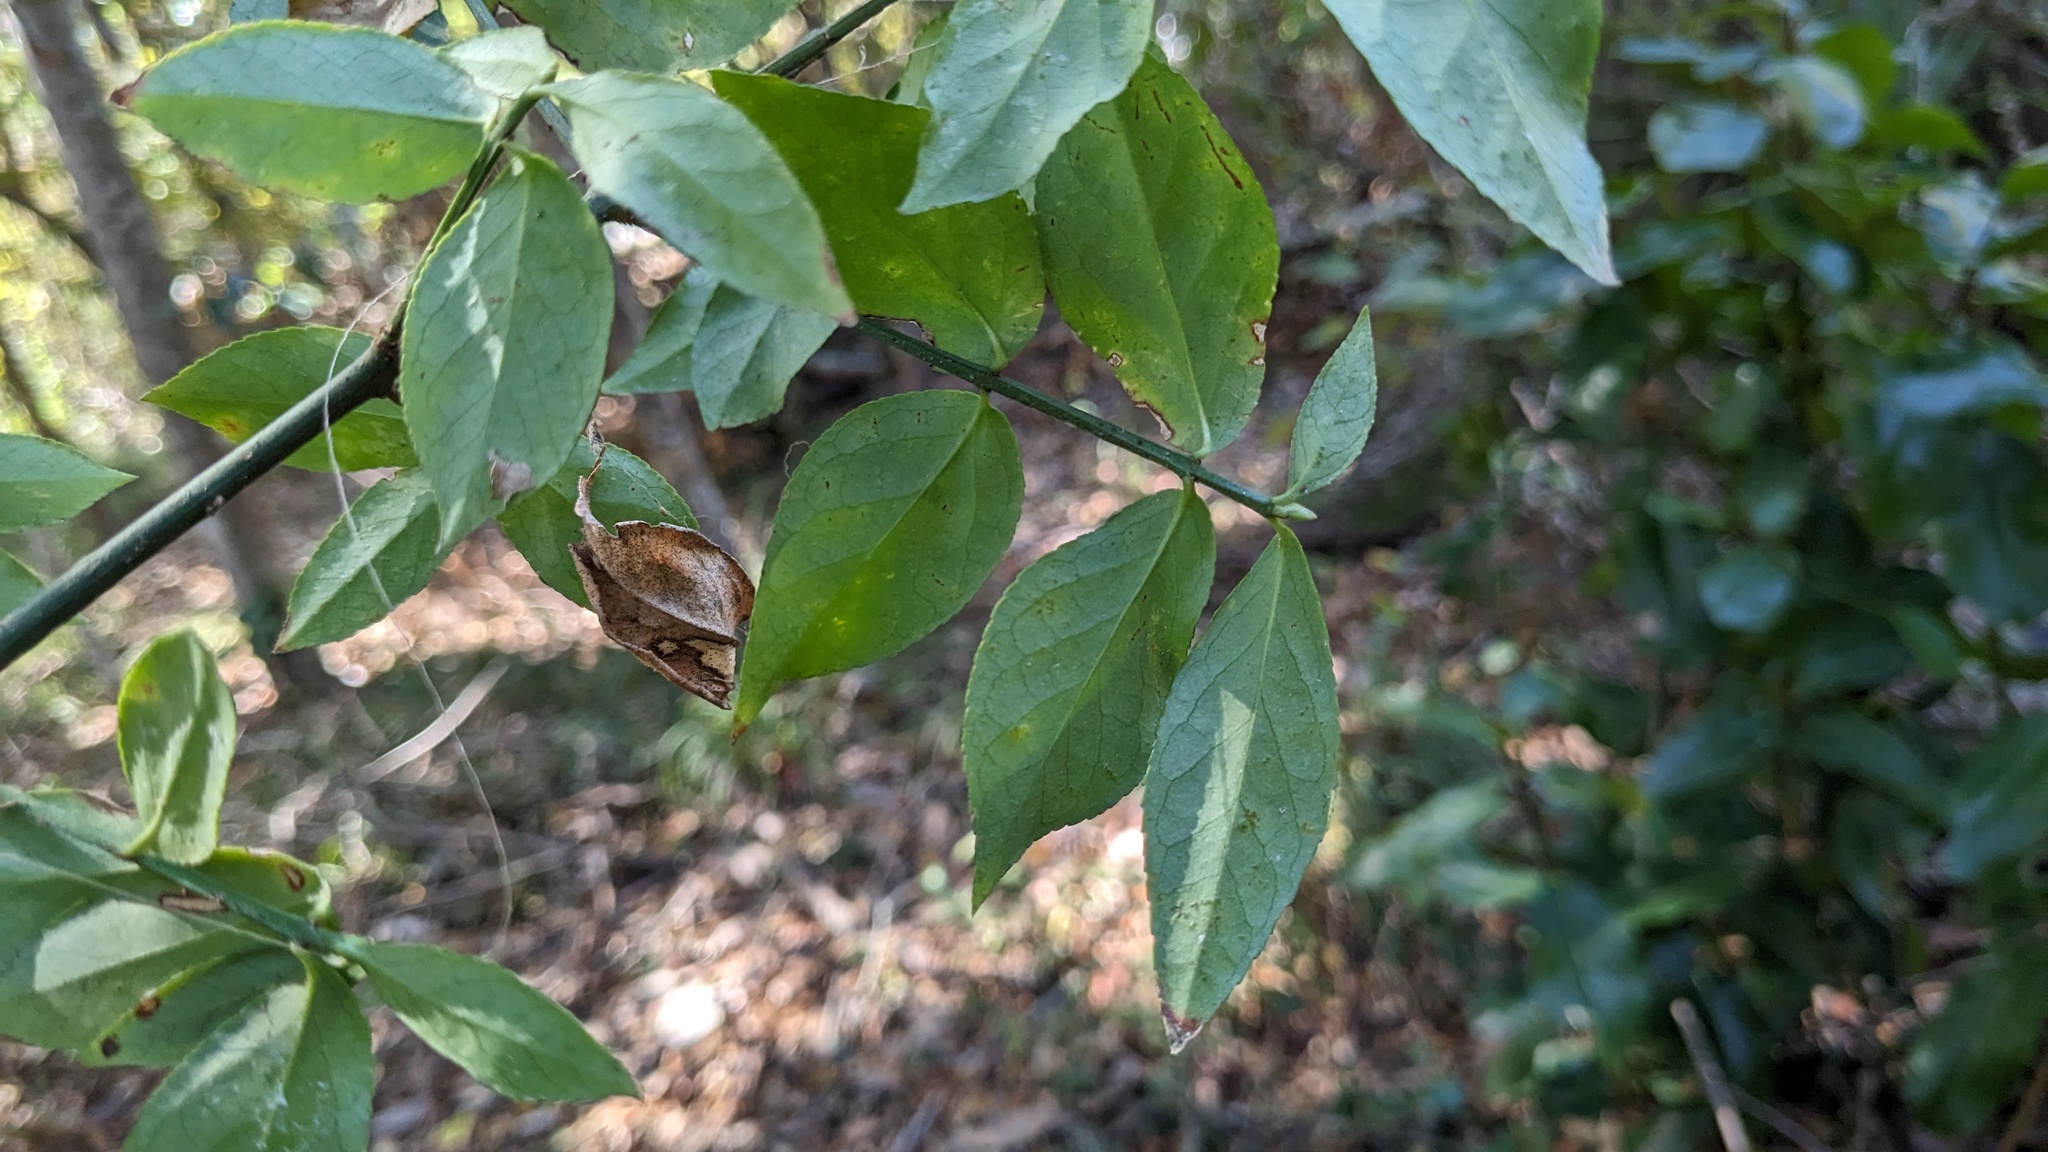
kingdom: Plantae
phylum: Tracheophyta
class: Magnoliopsida
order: Celastrales
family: Celastraceae
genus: Euonymus
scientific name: Euonymus americanus
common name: Bursting-heart
